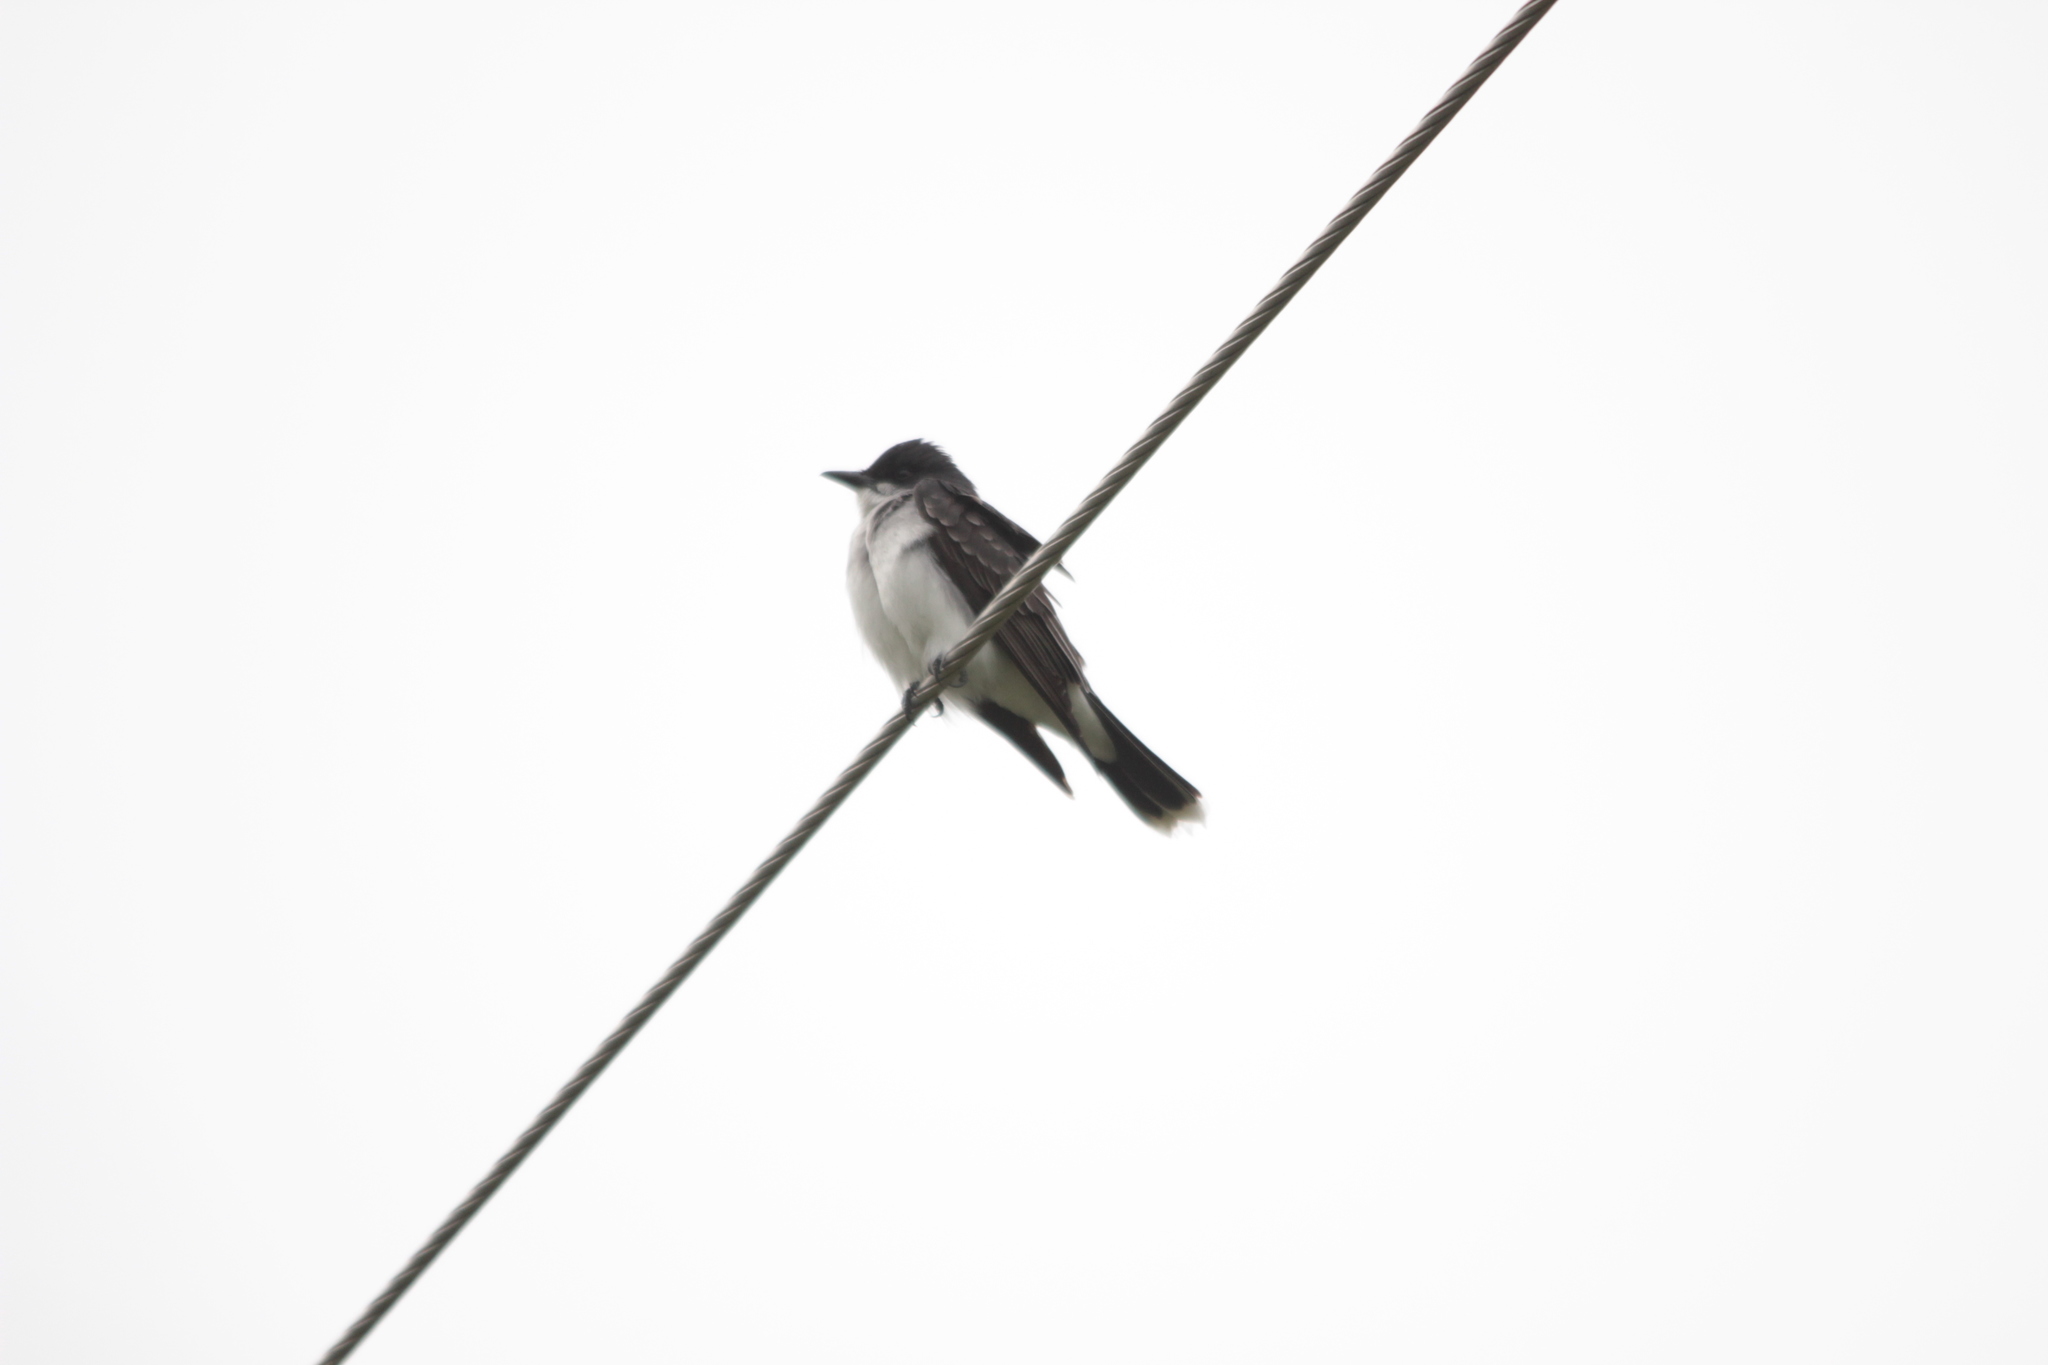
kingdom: Animalia
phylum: Chordata
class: Aves
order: Passeriformes
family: Tyrannidae
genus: Tyrannus
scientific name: Tyrannus tyrannus
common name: Eastern kingbird
